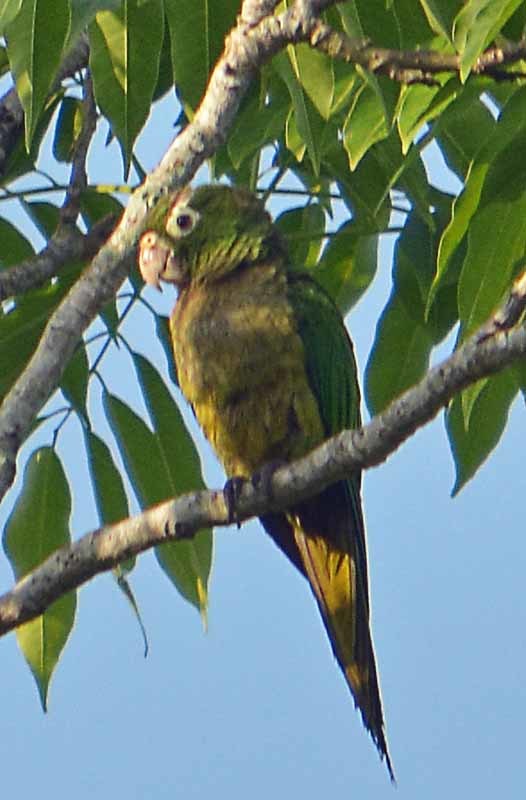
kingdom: Animalia
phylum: Chordata
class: Aves
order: Psittaciformes
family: Psittacidae
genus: Aratinga
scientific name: Aratinga nana
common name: Olive-throated parakeet
